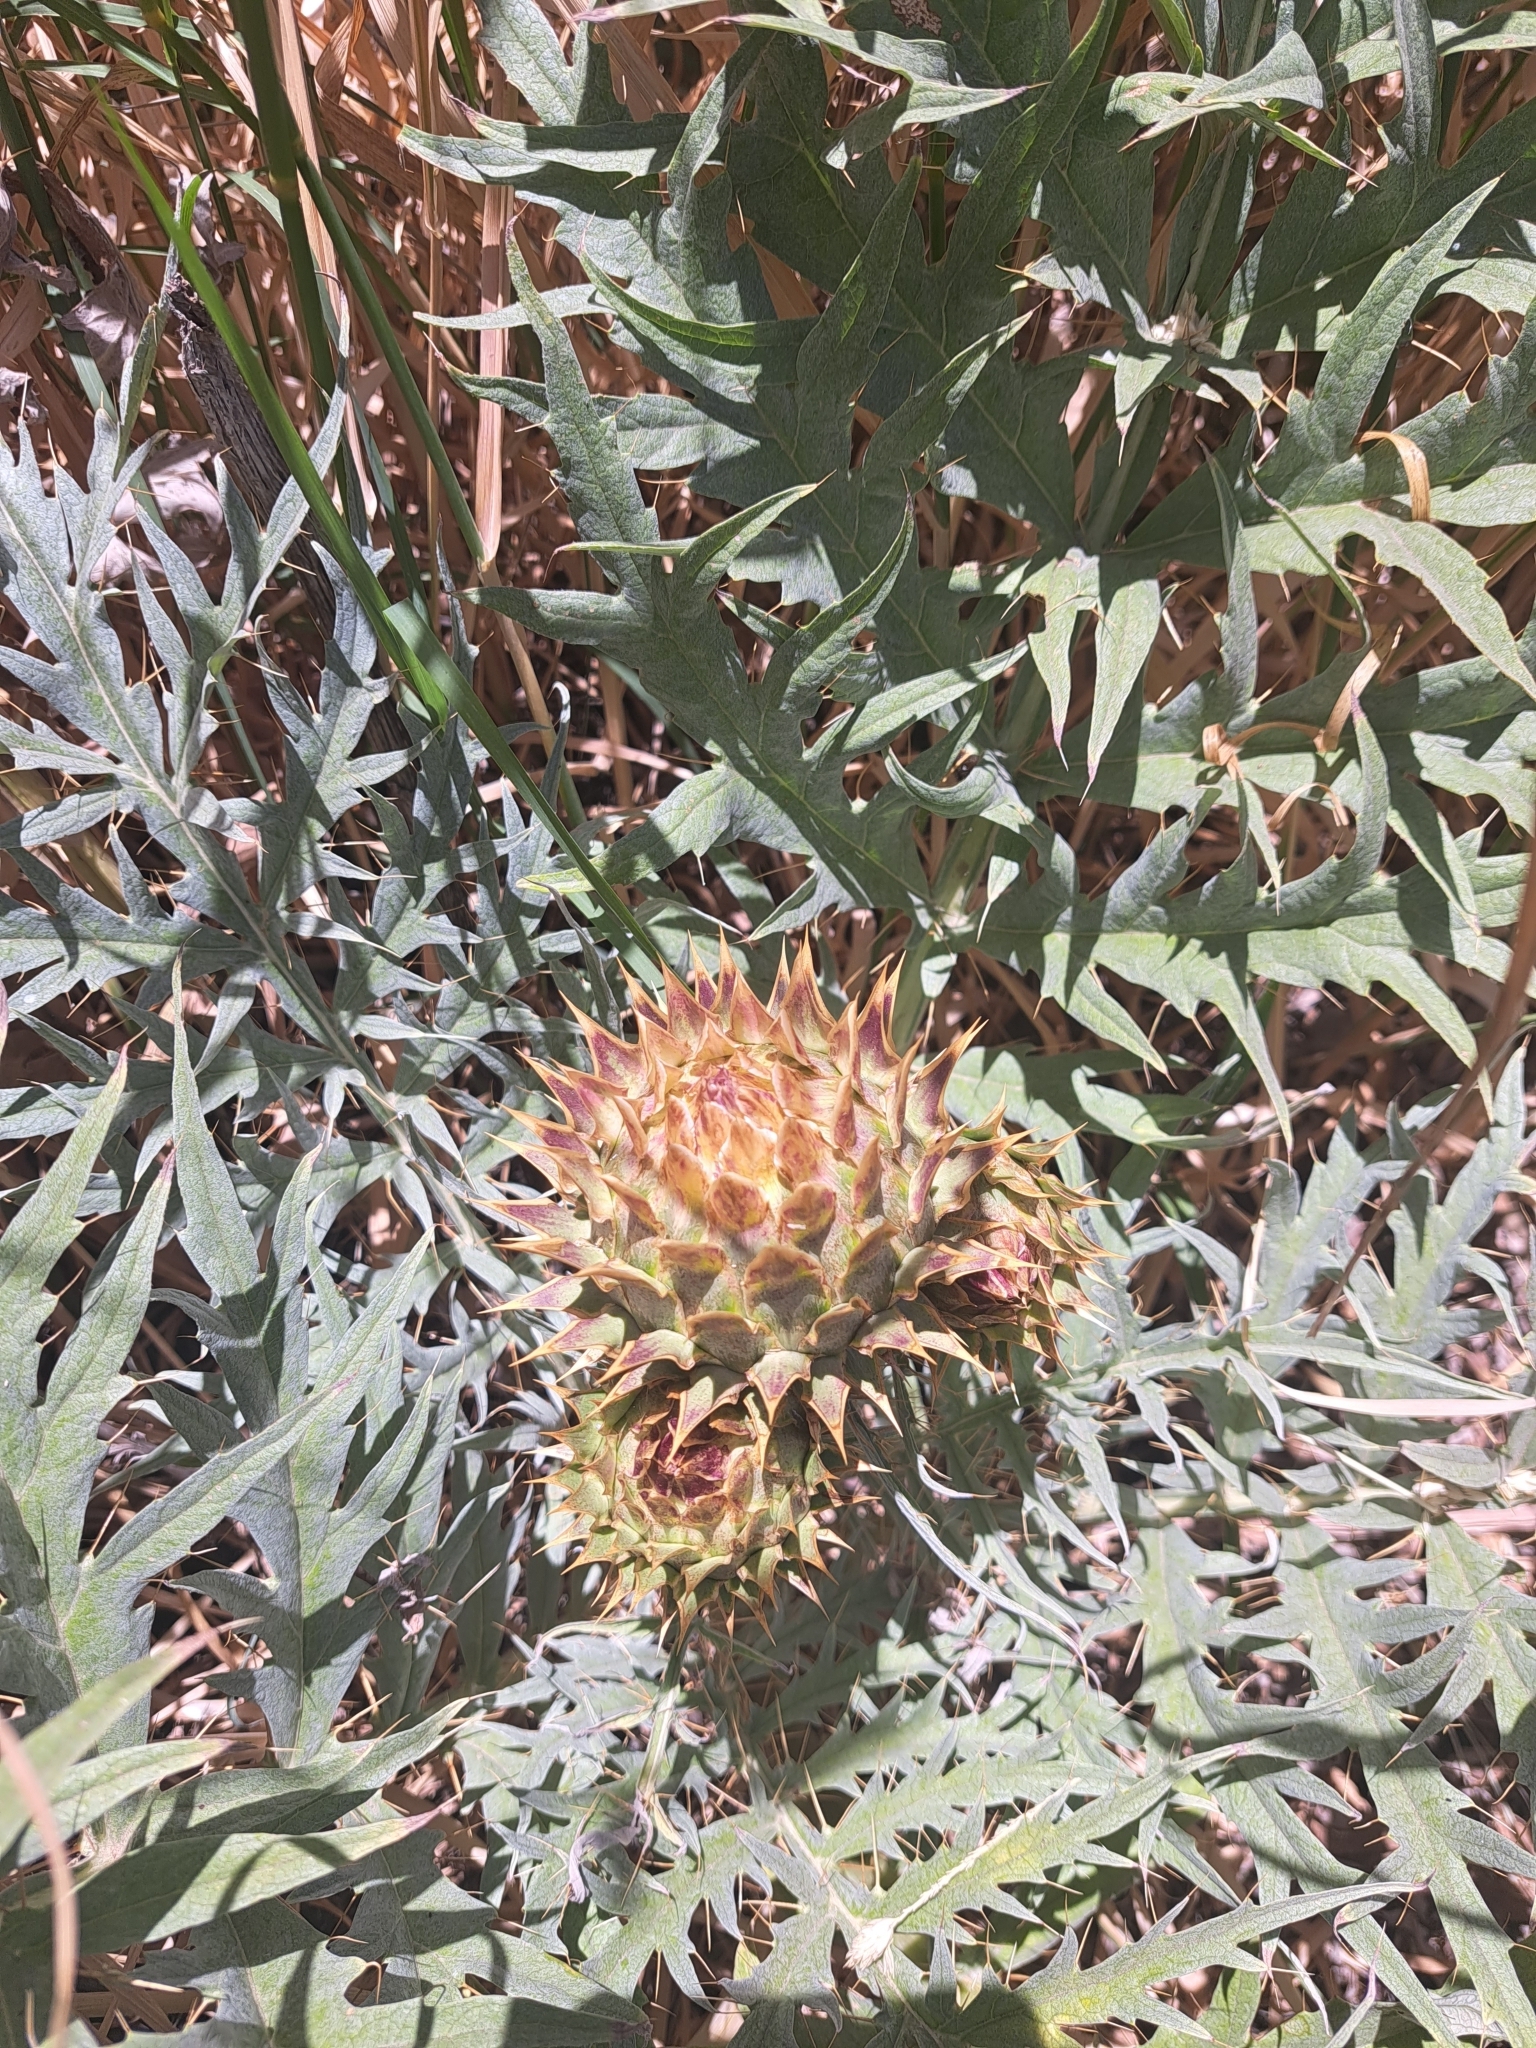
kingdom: Plantae
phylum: Tracheophyta
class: Magnoliopsida
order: Asterales
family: Asteraceae
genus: Cynara
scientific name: Cynara cardunculus
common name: Globe artichoke
